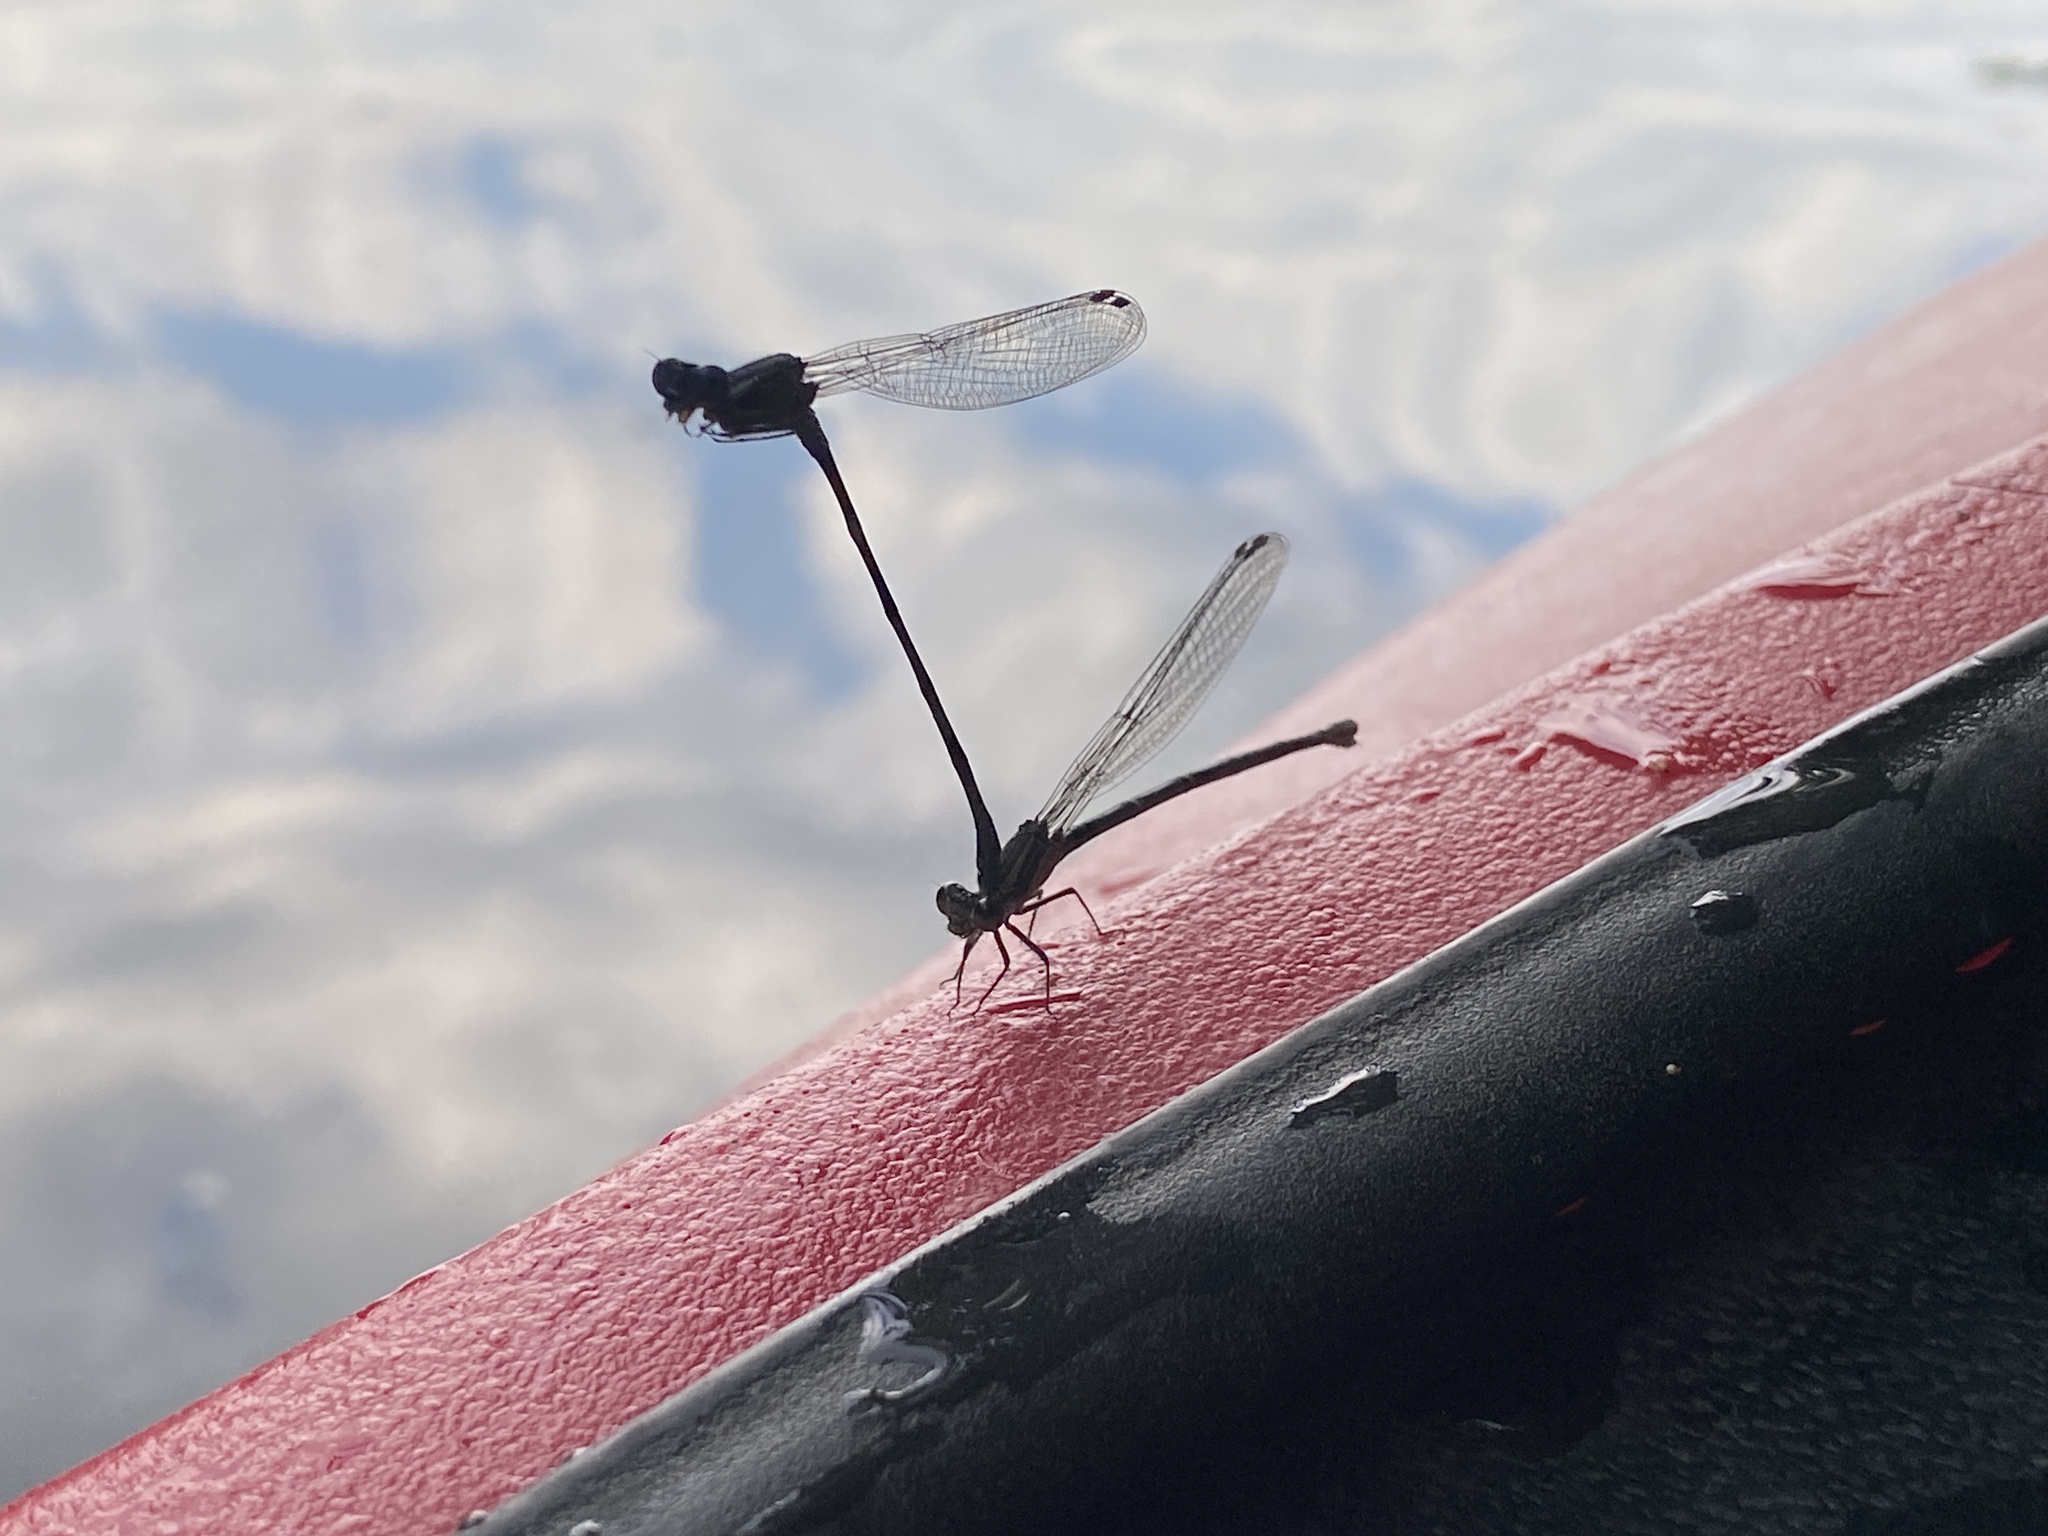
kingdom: Animalia
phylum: Arthropoda
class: Insecta
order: Odonata
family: Coenagrionidae
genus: Argia
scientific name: Argia translata
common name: Dusky dancer
